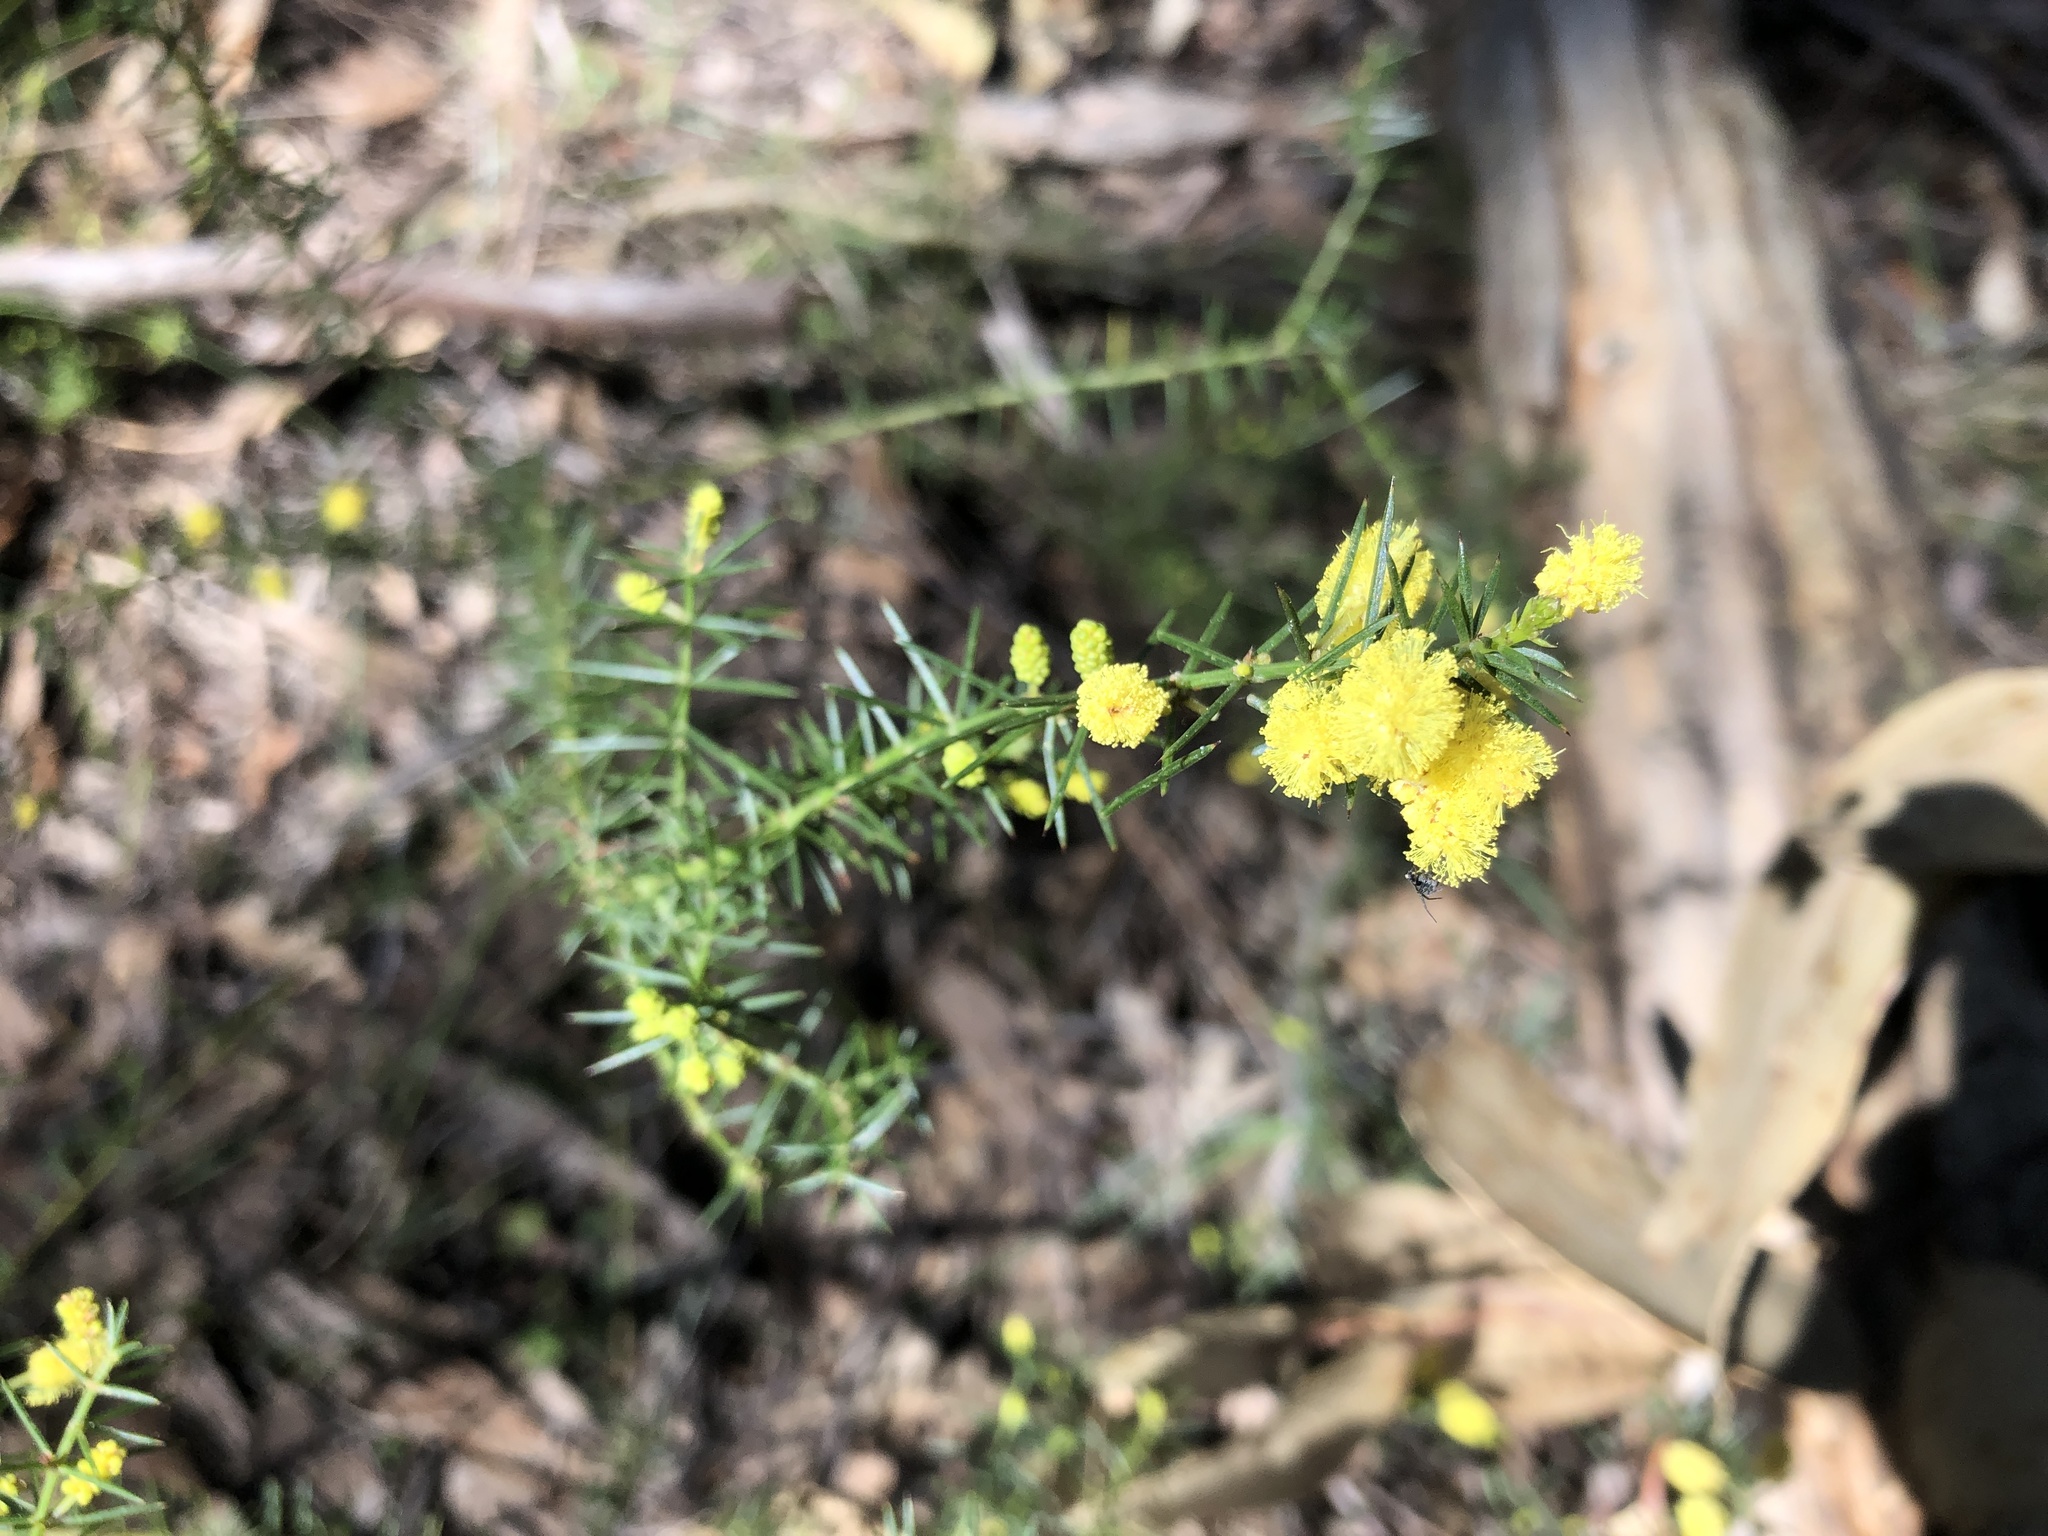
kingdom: Plantae
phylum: Tracheophyta
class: Magnoliopsida
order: Fabales
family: Fabaceae
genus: Acacia
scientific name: Acacia verticillata
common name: Prickly moses
